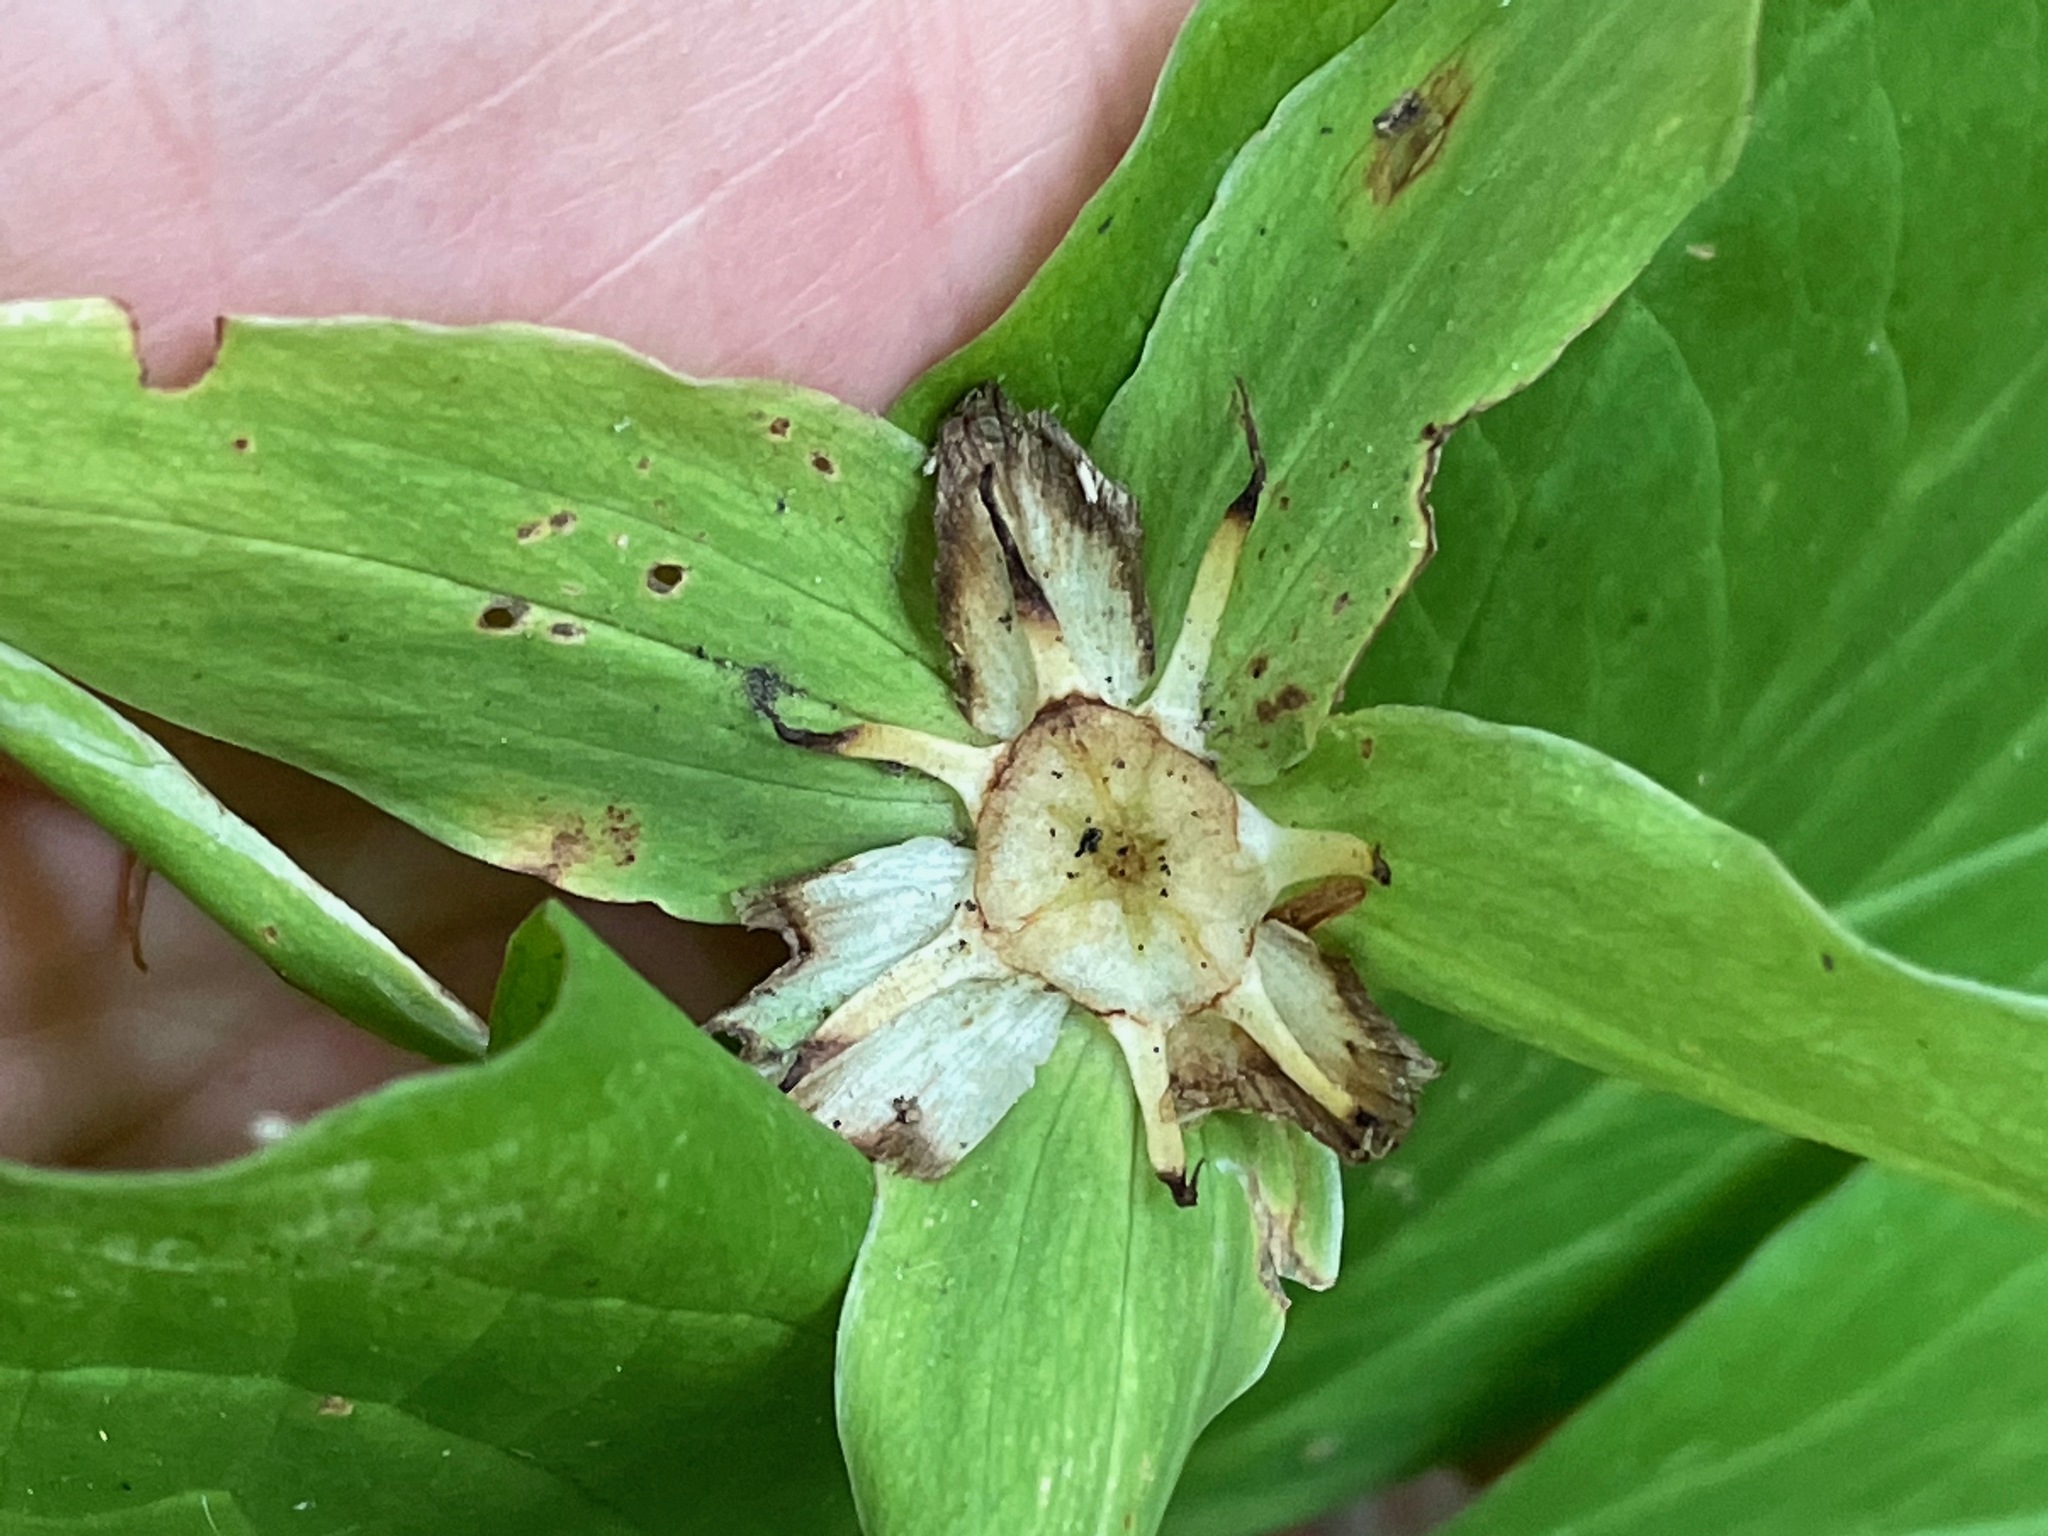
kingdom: Plantae
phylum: Tracheophyta
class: Liliopsida
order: Liliales
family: Melanthiaceae
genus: Trillium
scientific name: Trillium grandiflorum
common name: Great white trillium
